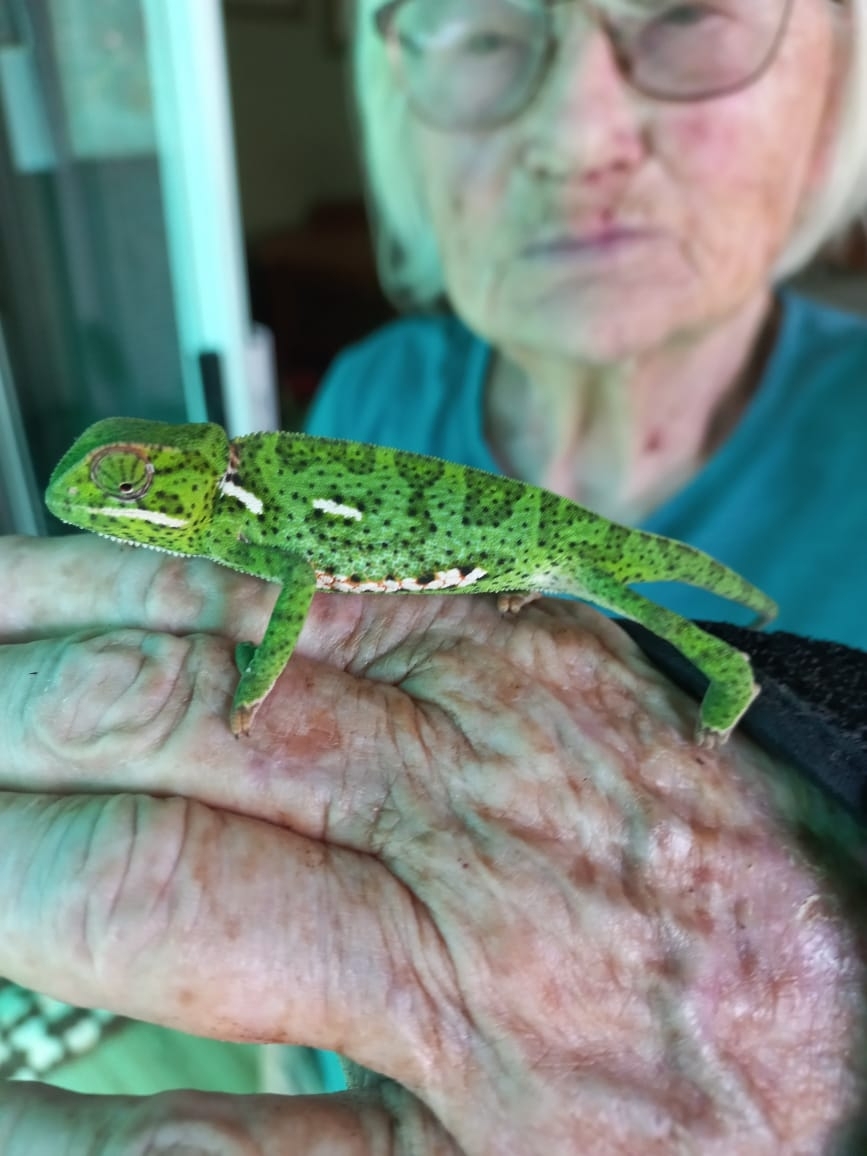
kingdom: Animalia
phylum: Chordata
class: Squamata
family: Chamaeleonidae
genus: Chamaeleo
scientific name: Chamaeleo dilepis
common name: Flapneck chameleon
